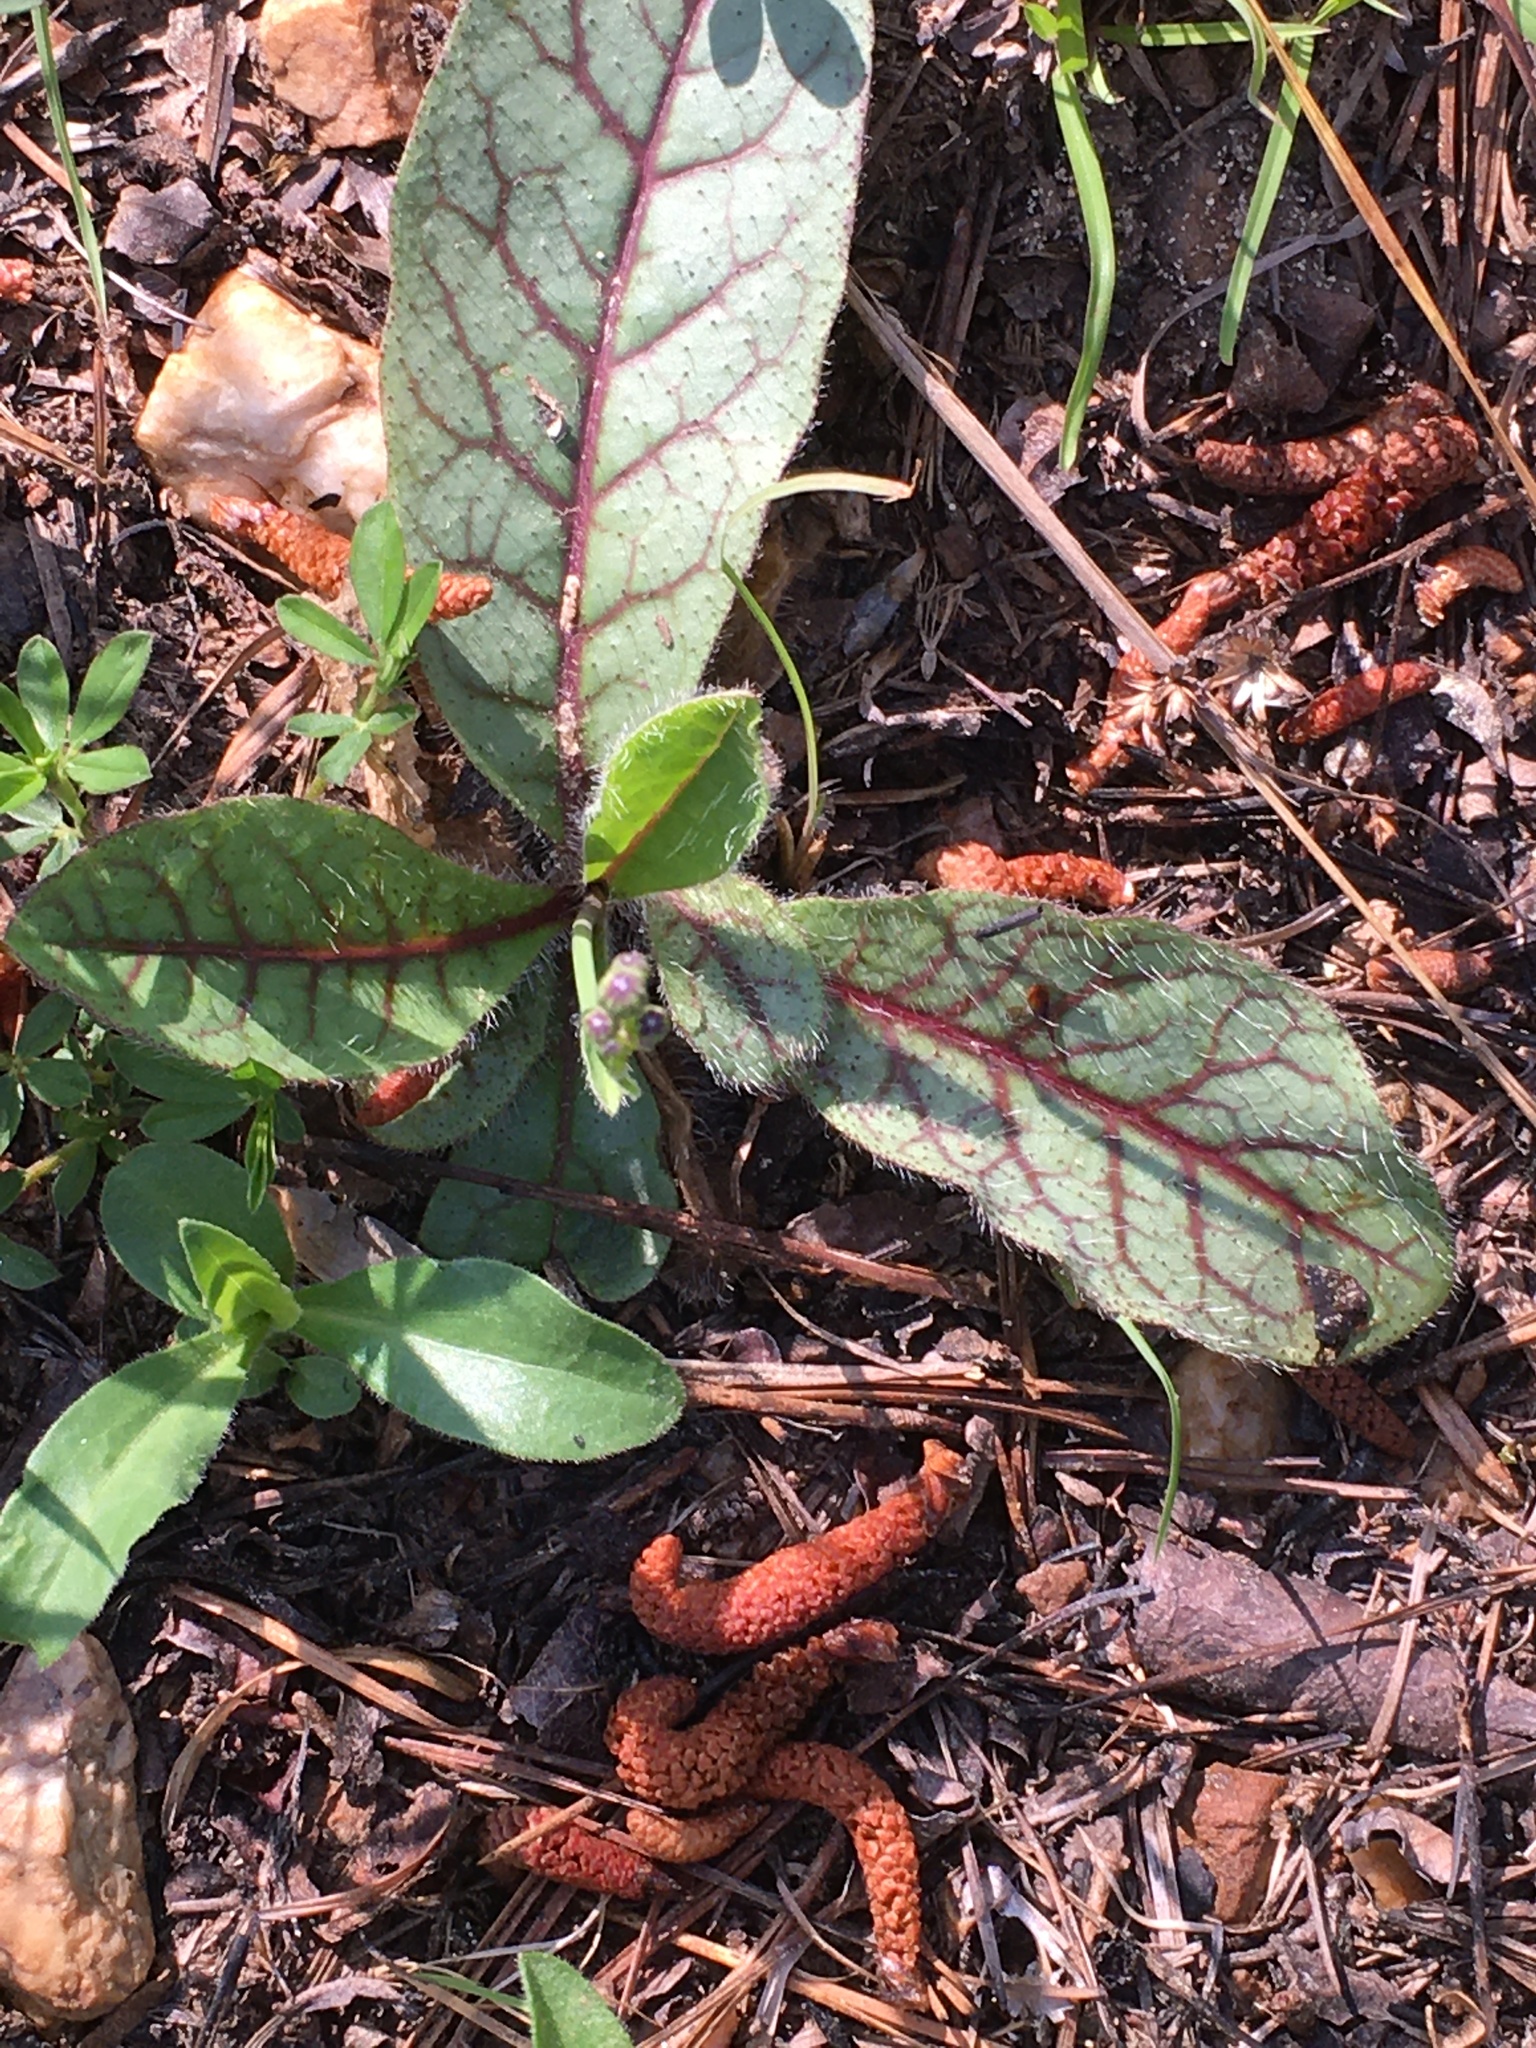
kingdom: Plantae
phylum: Tracheophyta
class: Magnoliopsida
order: Asterales
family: Asteraceae
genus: Hieracium
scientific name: Hieracium venosum
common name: Rattlesnake hawkweed
